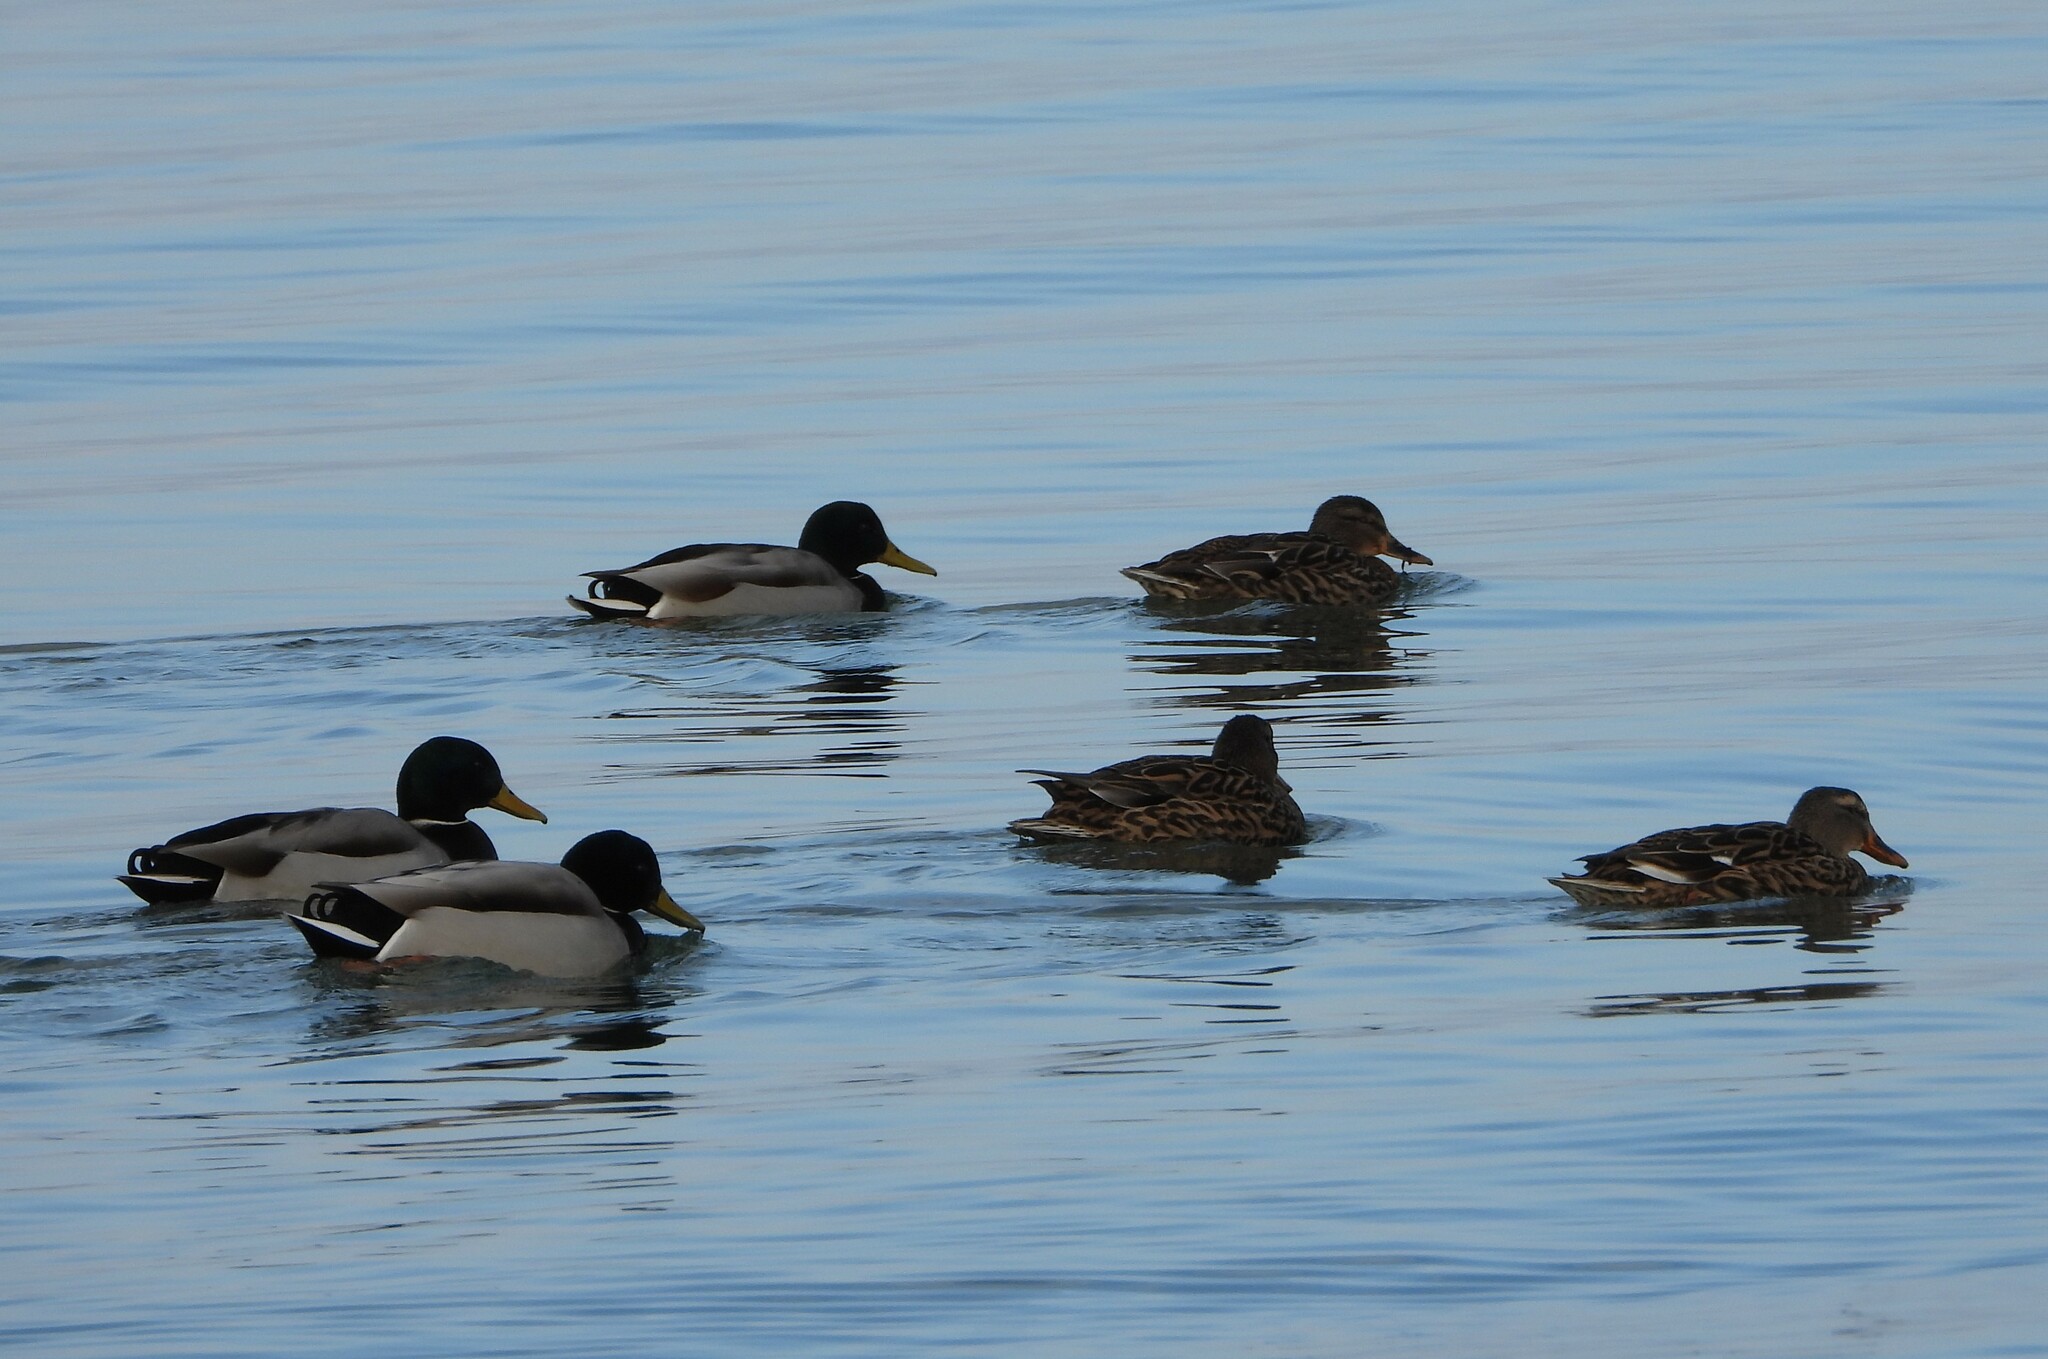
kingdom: Animalia
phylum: Chordata
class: Aves
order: Anseriformes
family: Anatidae
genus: Anas
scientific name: Anas platyrhynchos
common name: Mallard
